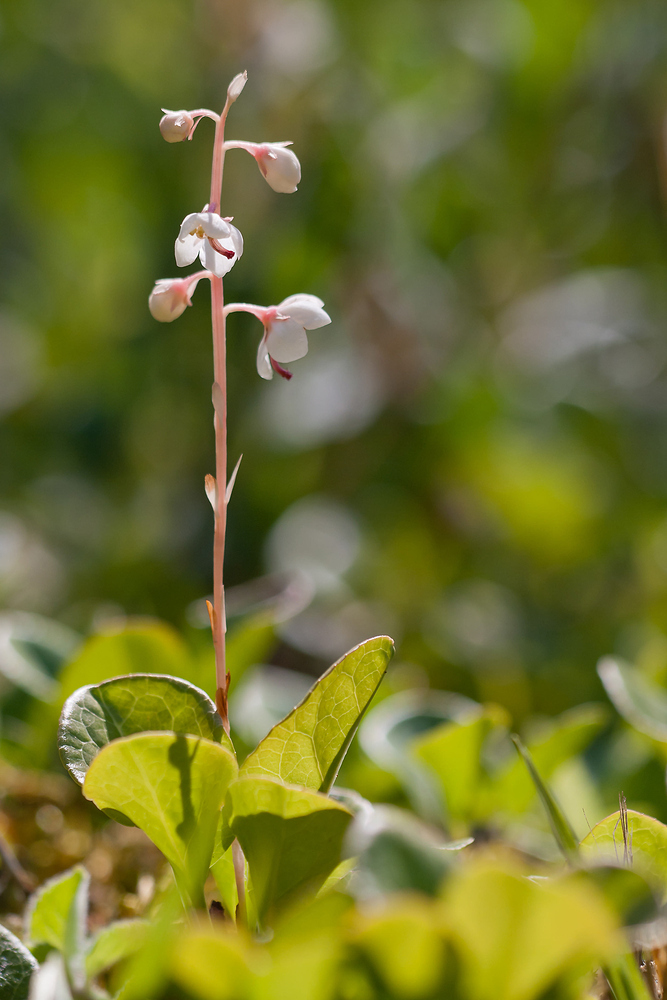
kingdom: Plantae
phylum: Tracheophyta
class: Magnoliopsida
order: Ericales
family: Ericaceae
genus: Pyrola
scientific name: Pyrola rotundifolia
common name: Round-leaved wintergreen
